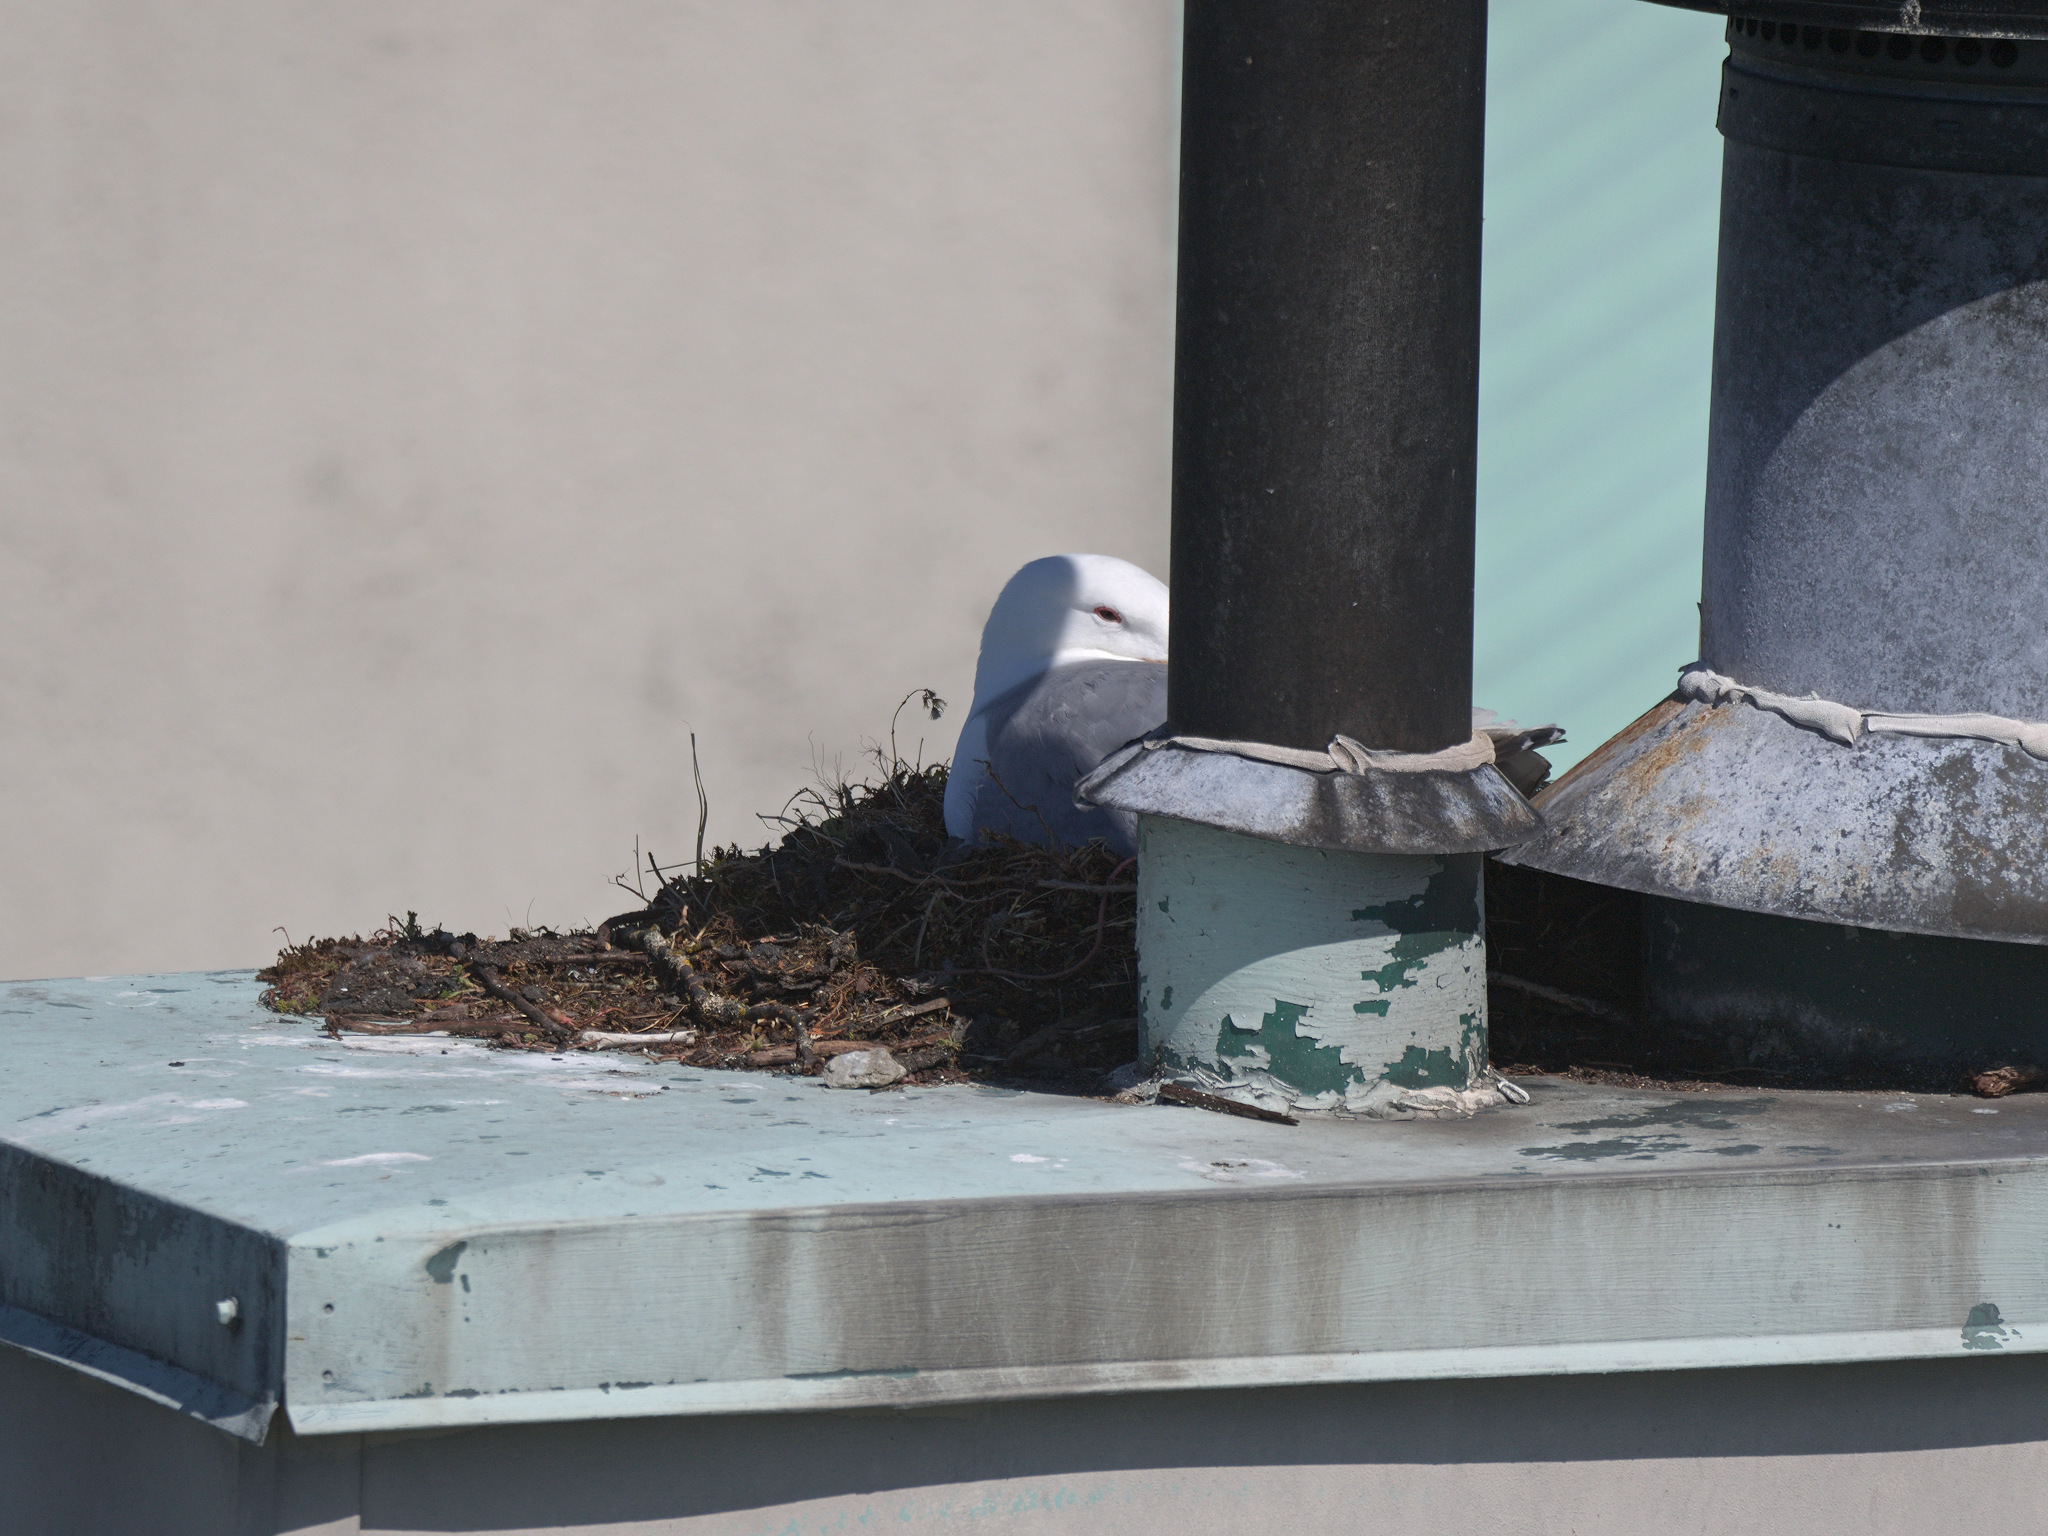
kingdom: Animalia
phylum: Chordata
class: Aves
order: Charadriiformes
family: Laridae
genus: Larus
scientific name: Larus
